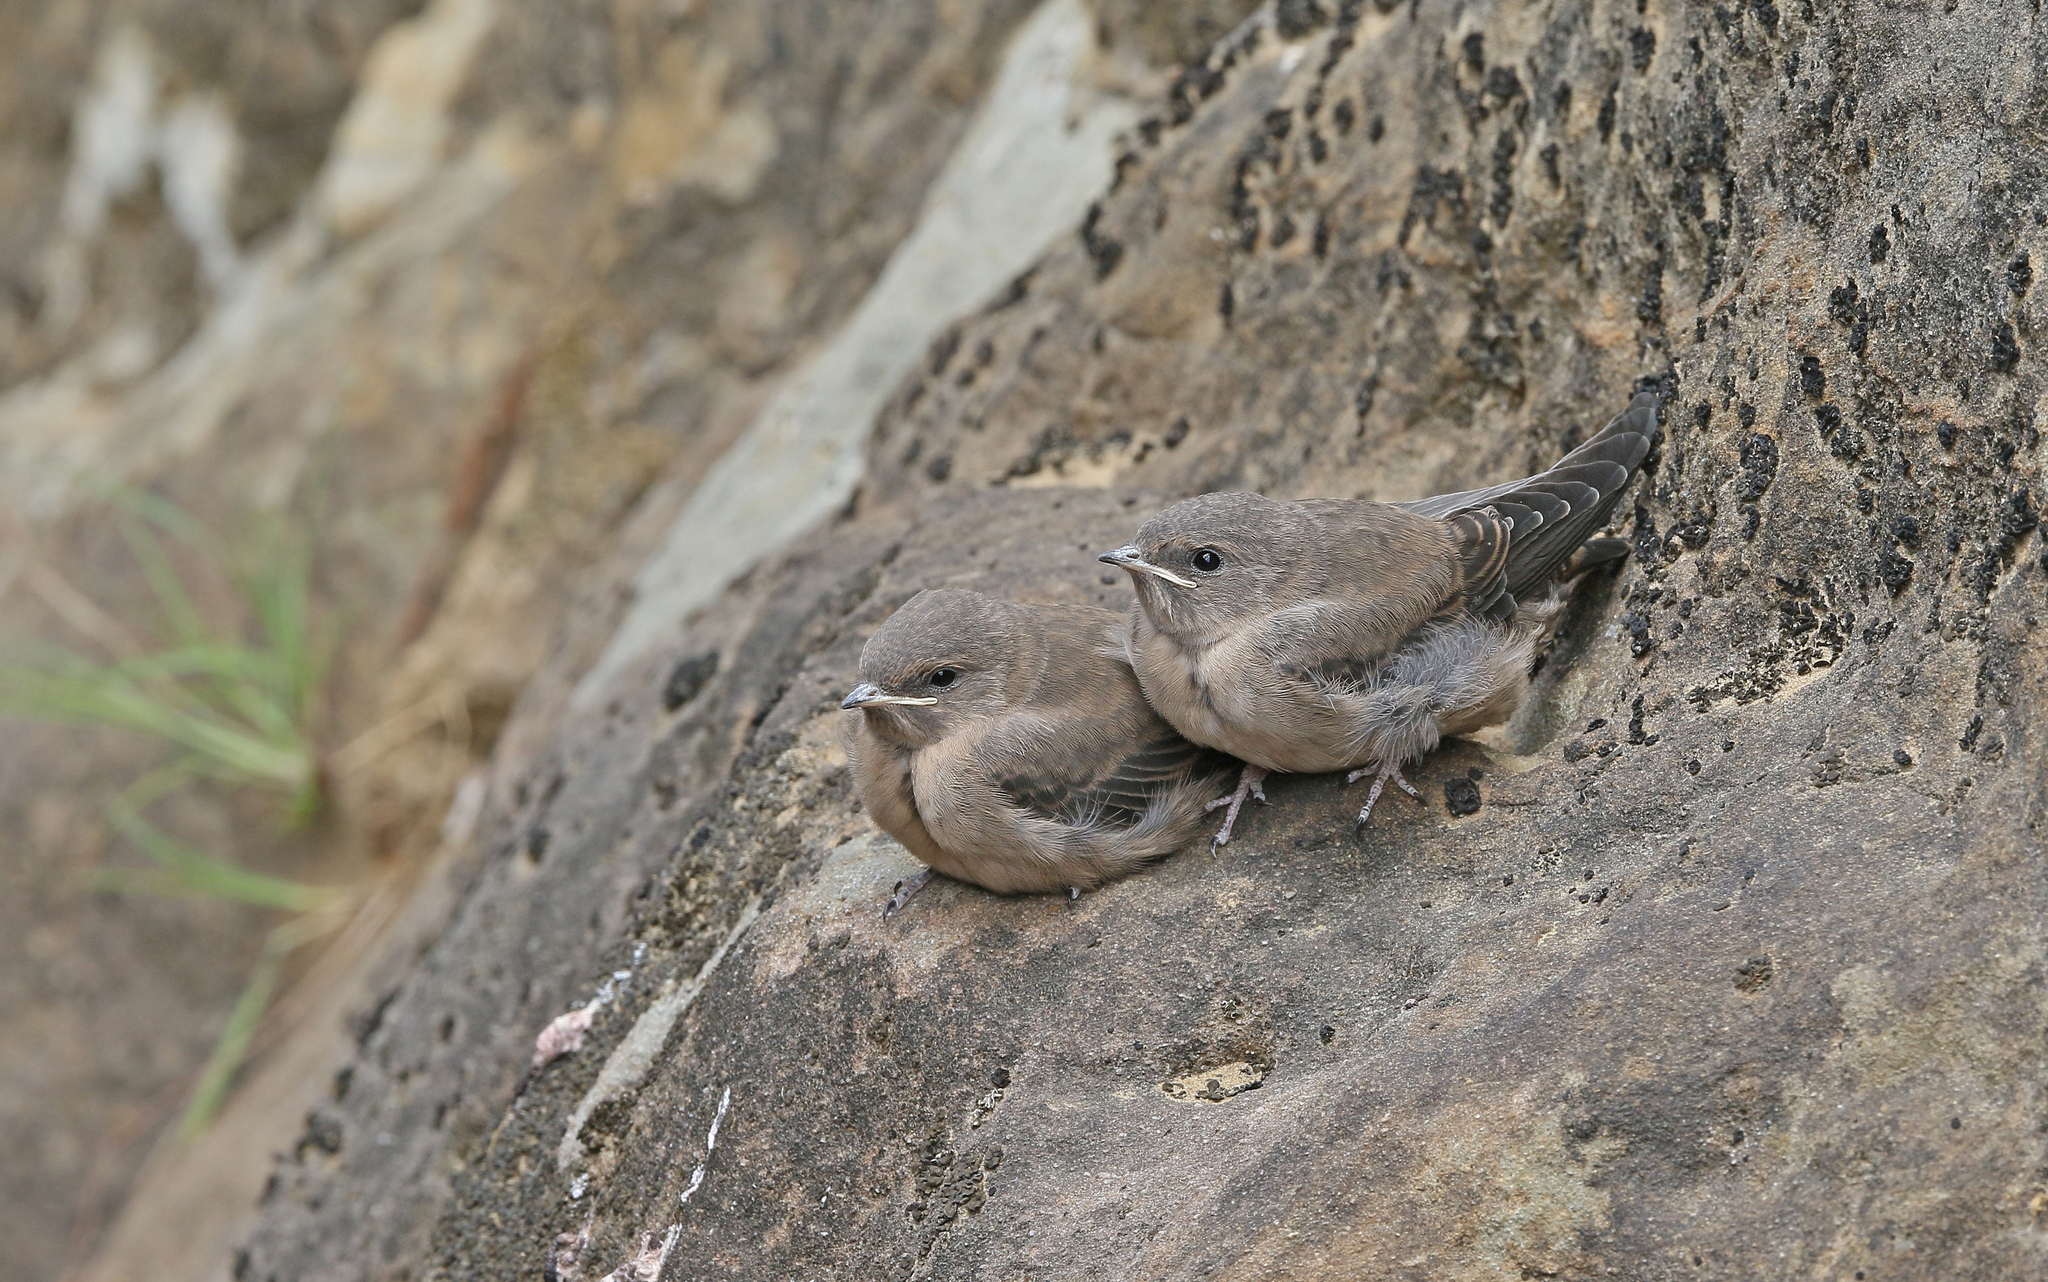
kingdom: Animalia
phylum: Chordata
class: Aves
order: Passeriformes
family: Hirundinidae
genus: Ptyonoprogne
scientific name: Ptyonoprogne rupestris
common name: Eurasian crag martin
